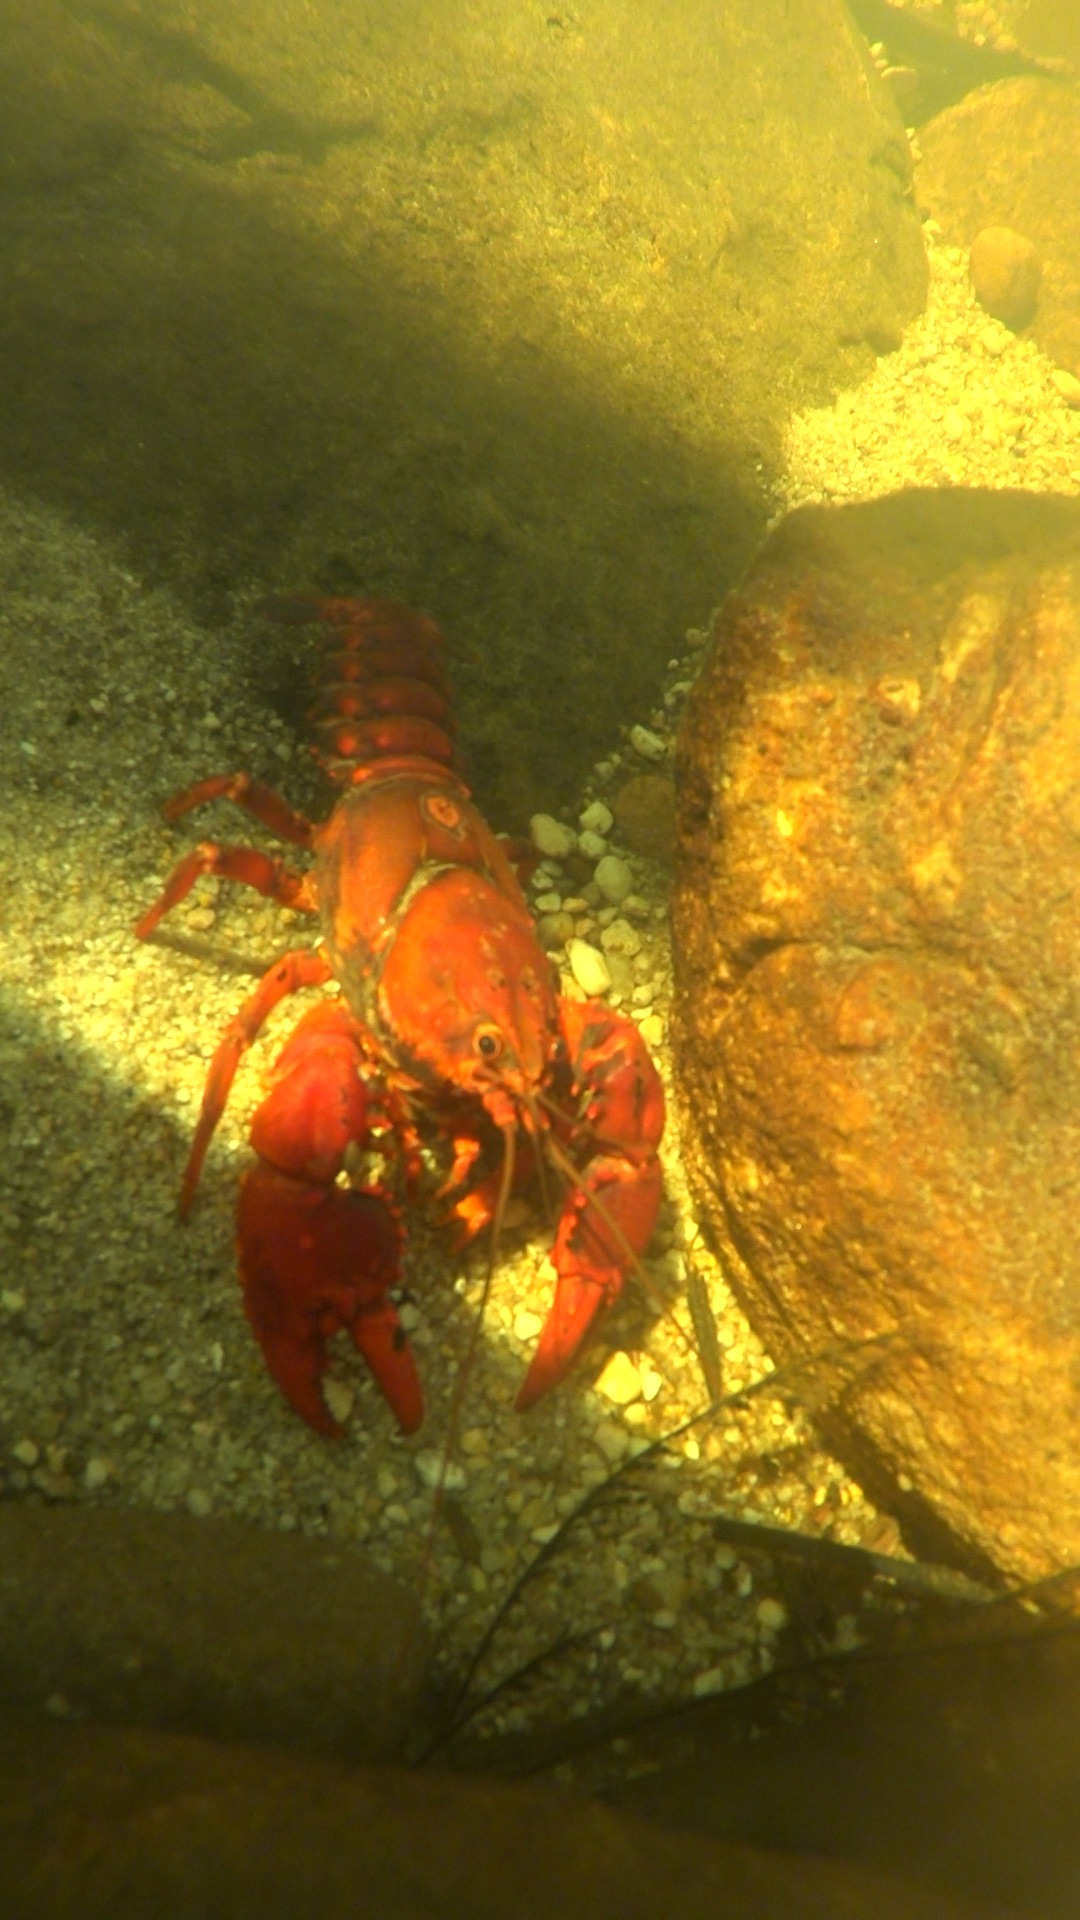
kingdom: Animalia
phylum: Arthropoda
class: Malacostraca
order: Decapoda
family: Parastacidae
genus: Euastacus
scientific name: Euastacus australasiensis
